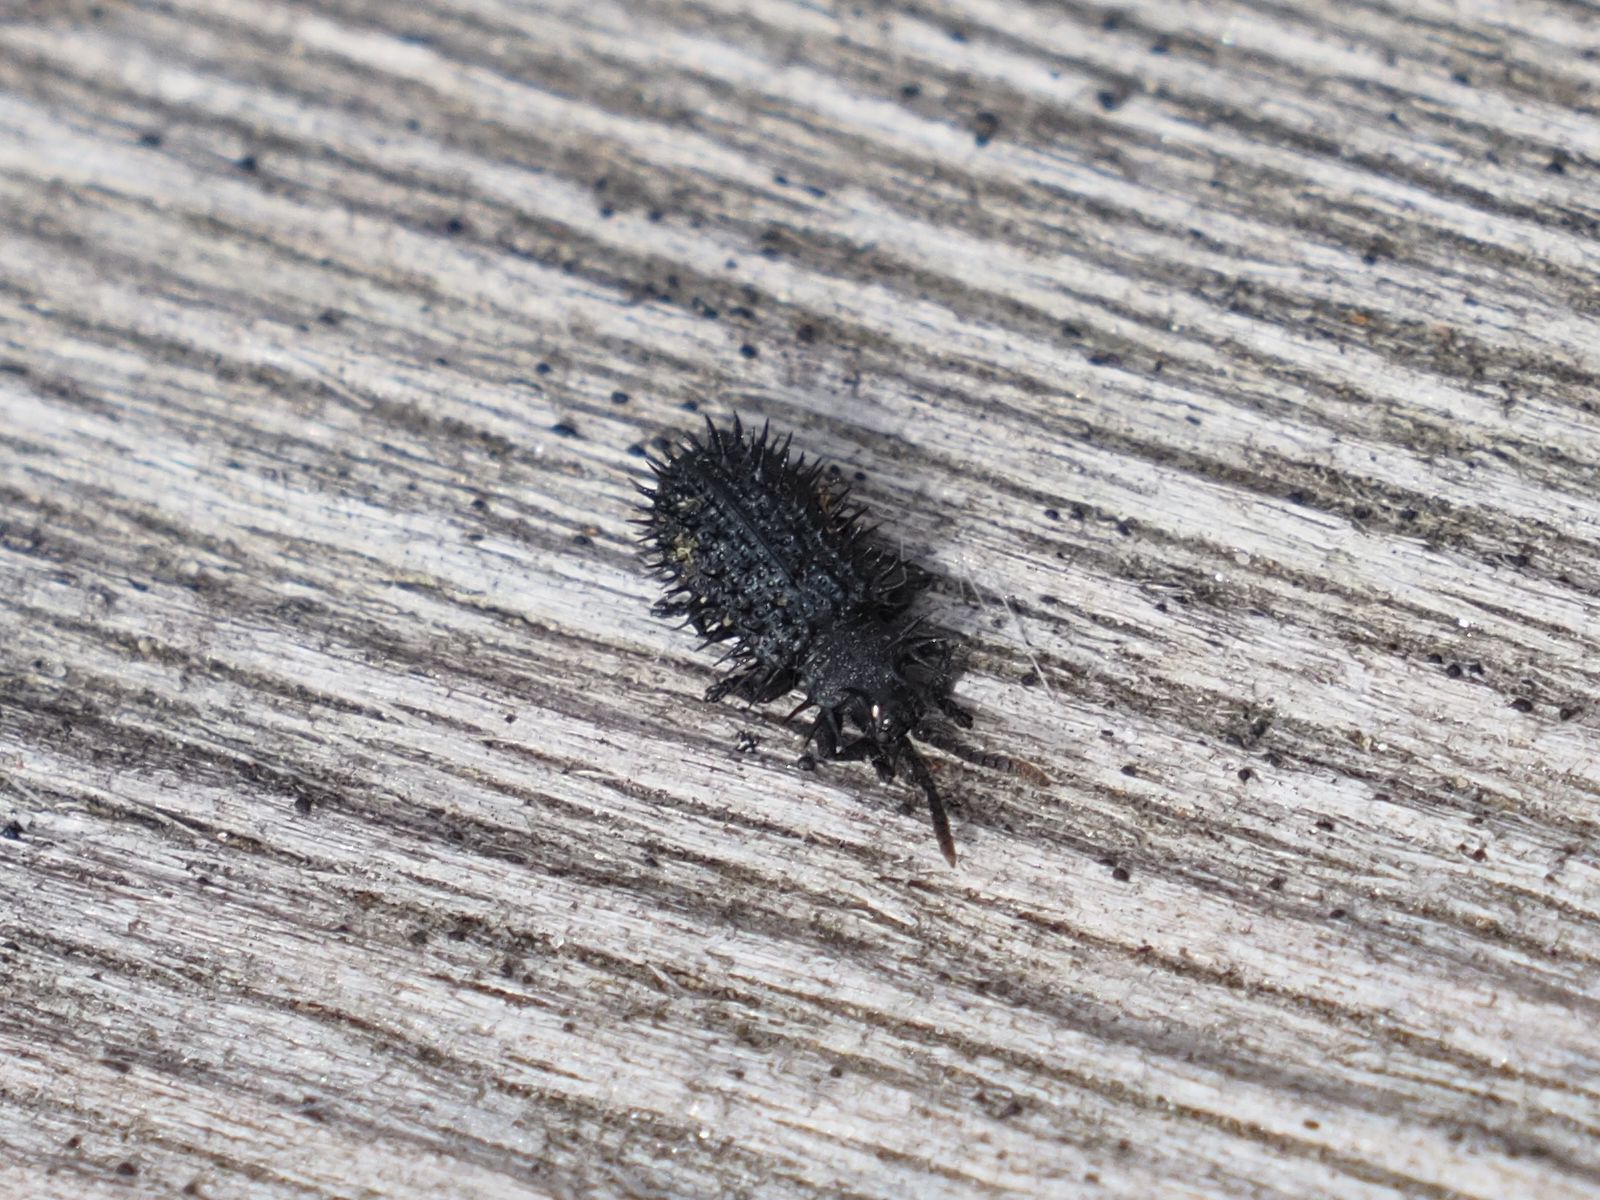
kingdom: Animalia
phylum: Arthropoda
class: Insecta
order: Coleoptera
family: Chrysomelidae
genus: Hispa
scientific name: Hispa atra
